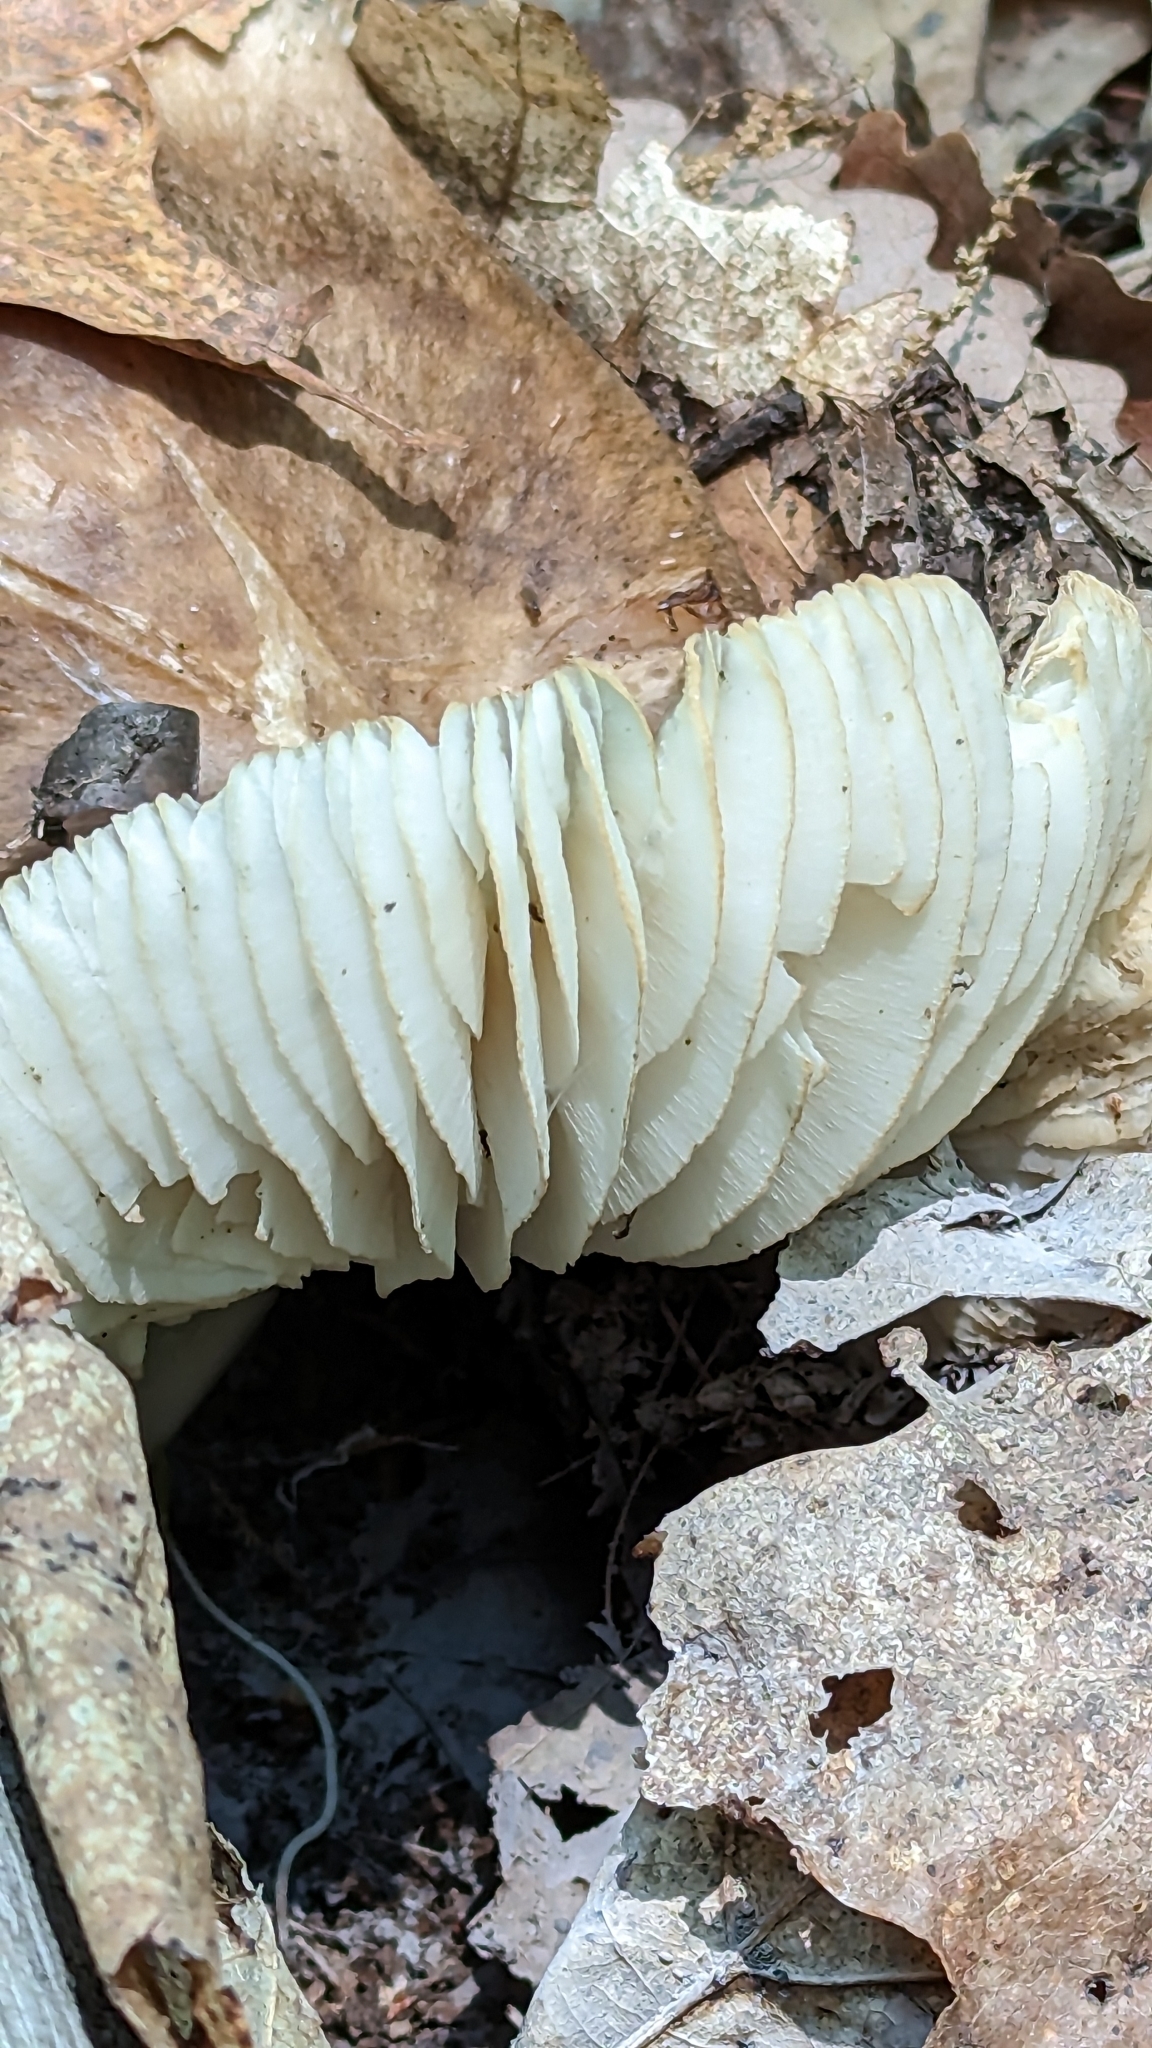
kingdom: Fungi
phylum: Basidiomycota
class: Agaricomycetes
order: Agaricales
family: Tricholomataceae
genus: Megacollybia
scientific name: Megacollybia rodmanii
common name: Eastern american platterful mushroom
